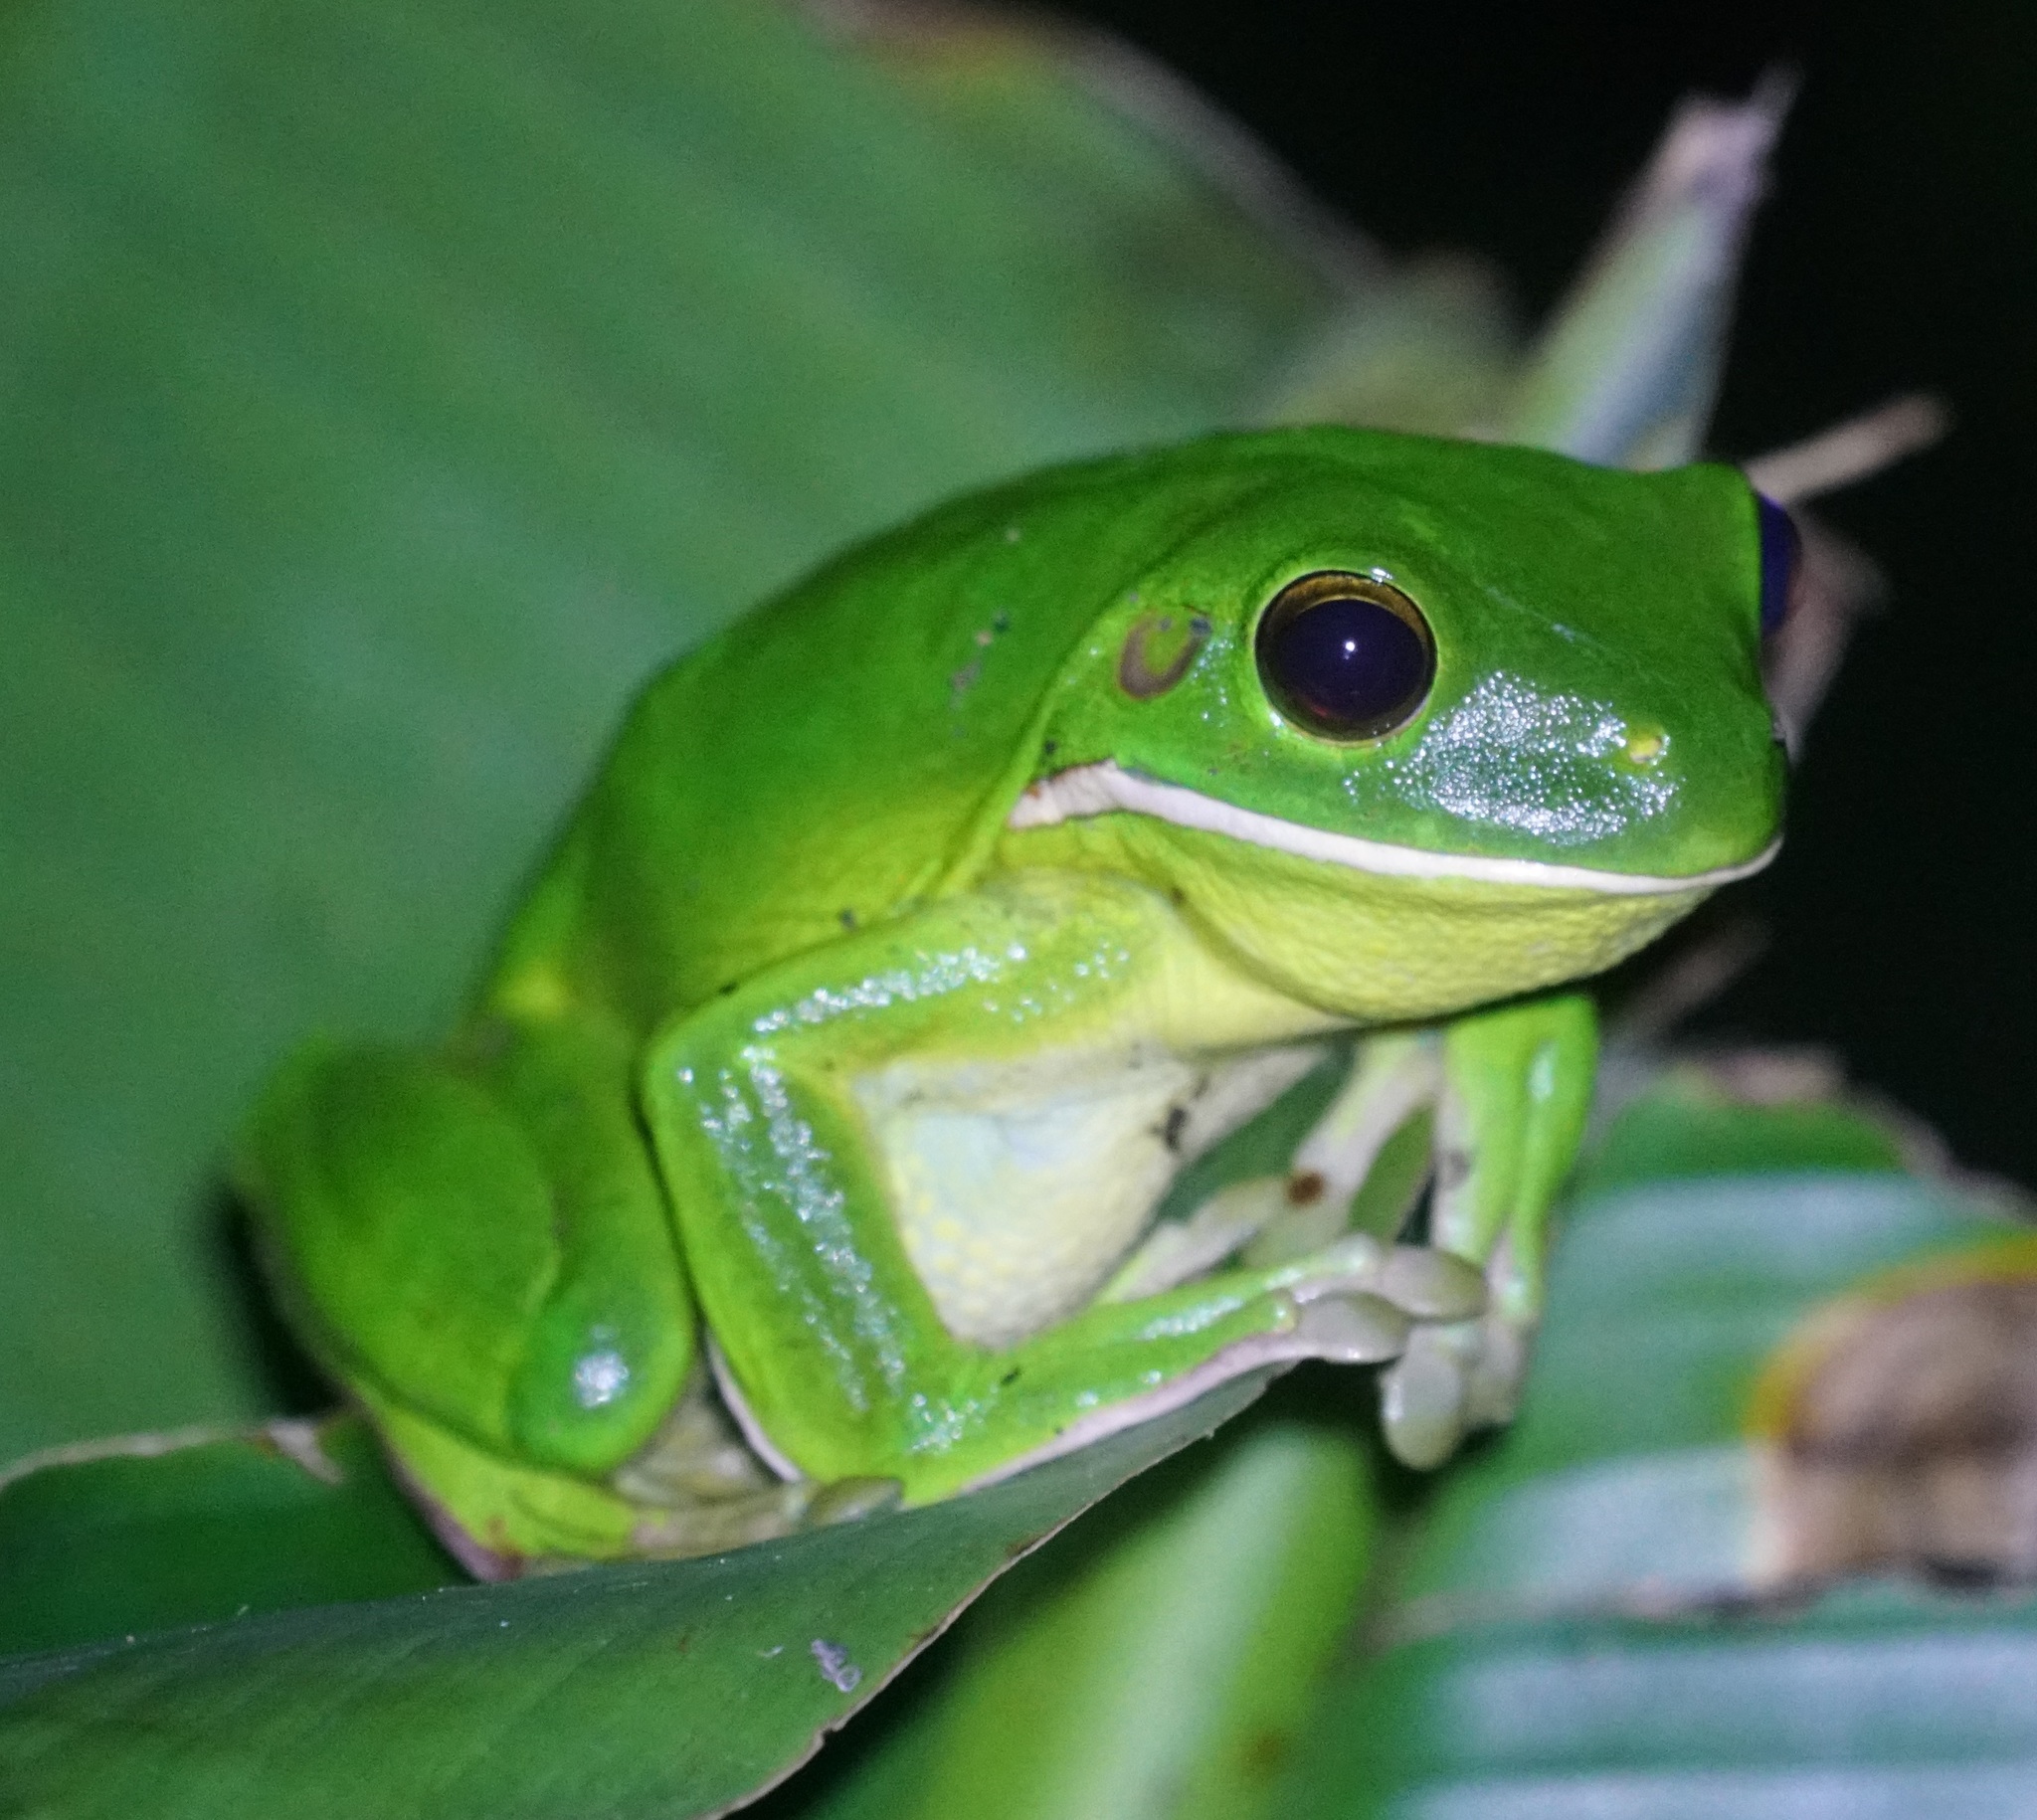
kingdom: Animalia
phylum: Chordata
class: Amphibia
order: Anura
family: Pelodryadidae
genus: Nyctimystes
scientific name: Nyctimystes infrafrenatus
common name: Australian giant treefrog
